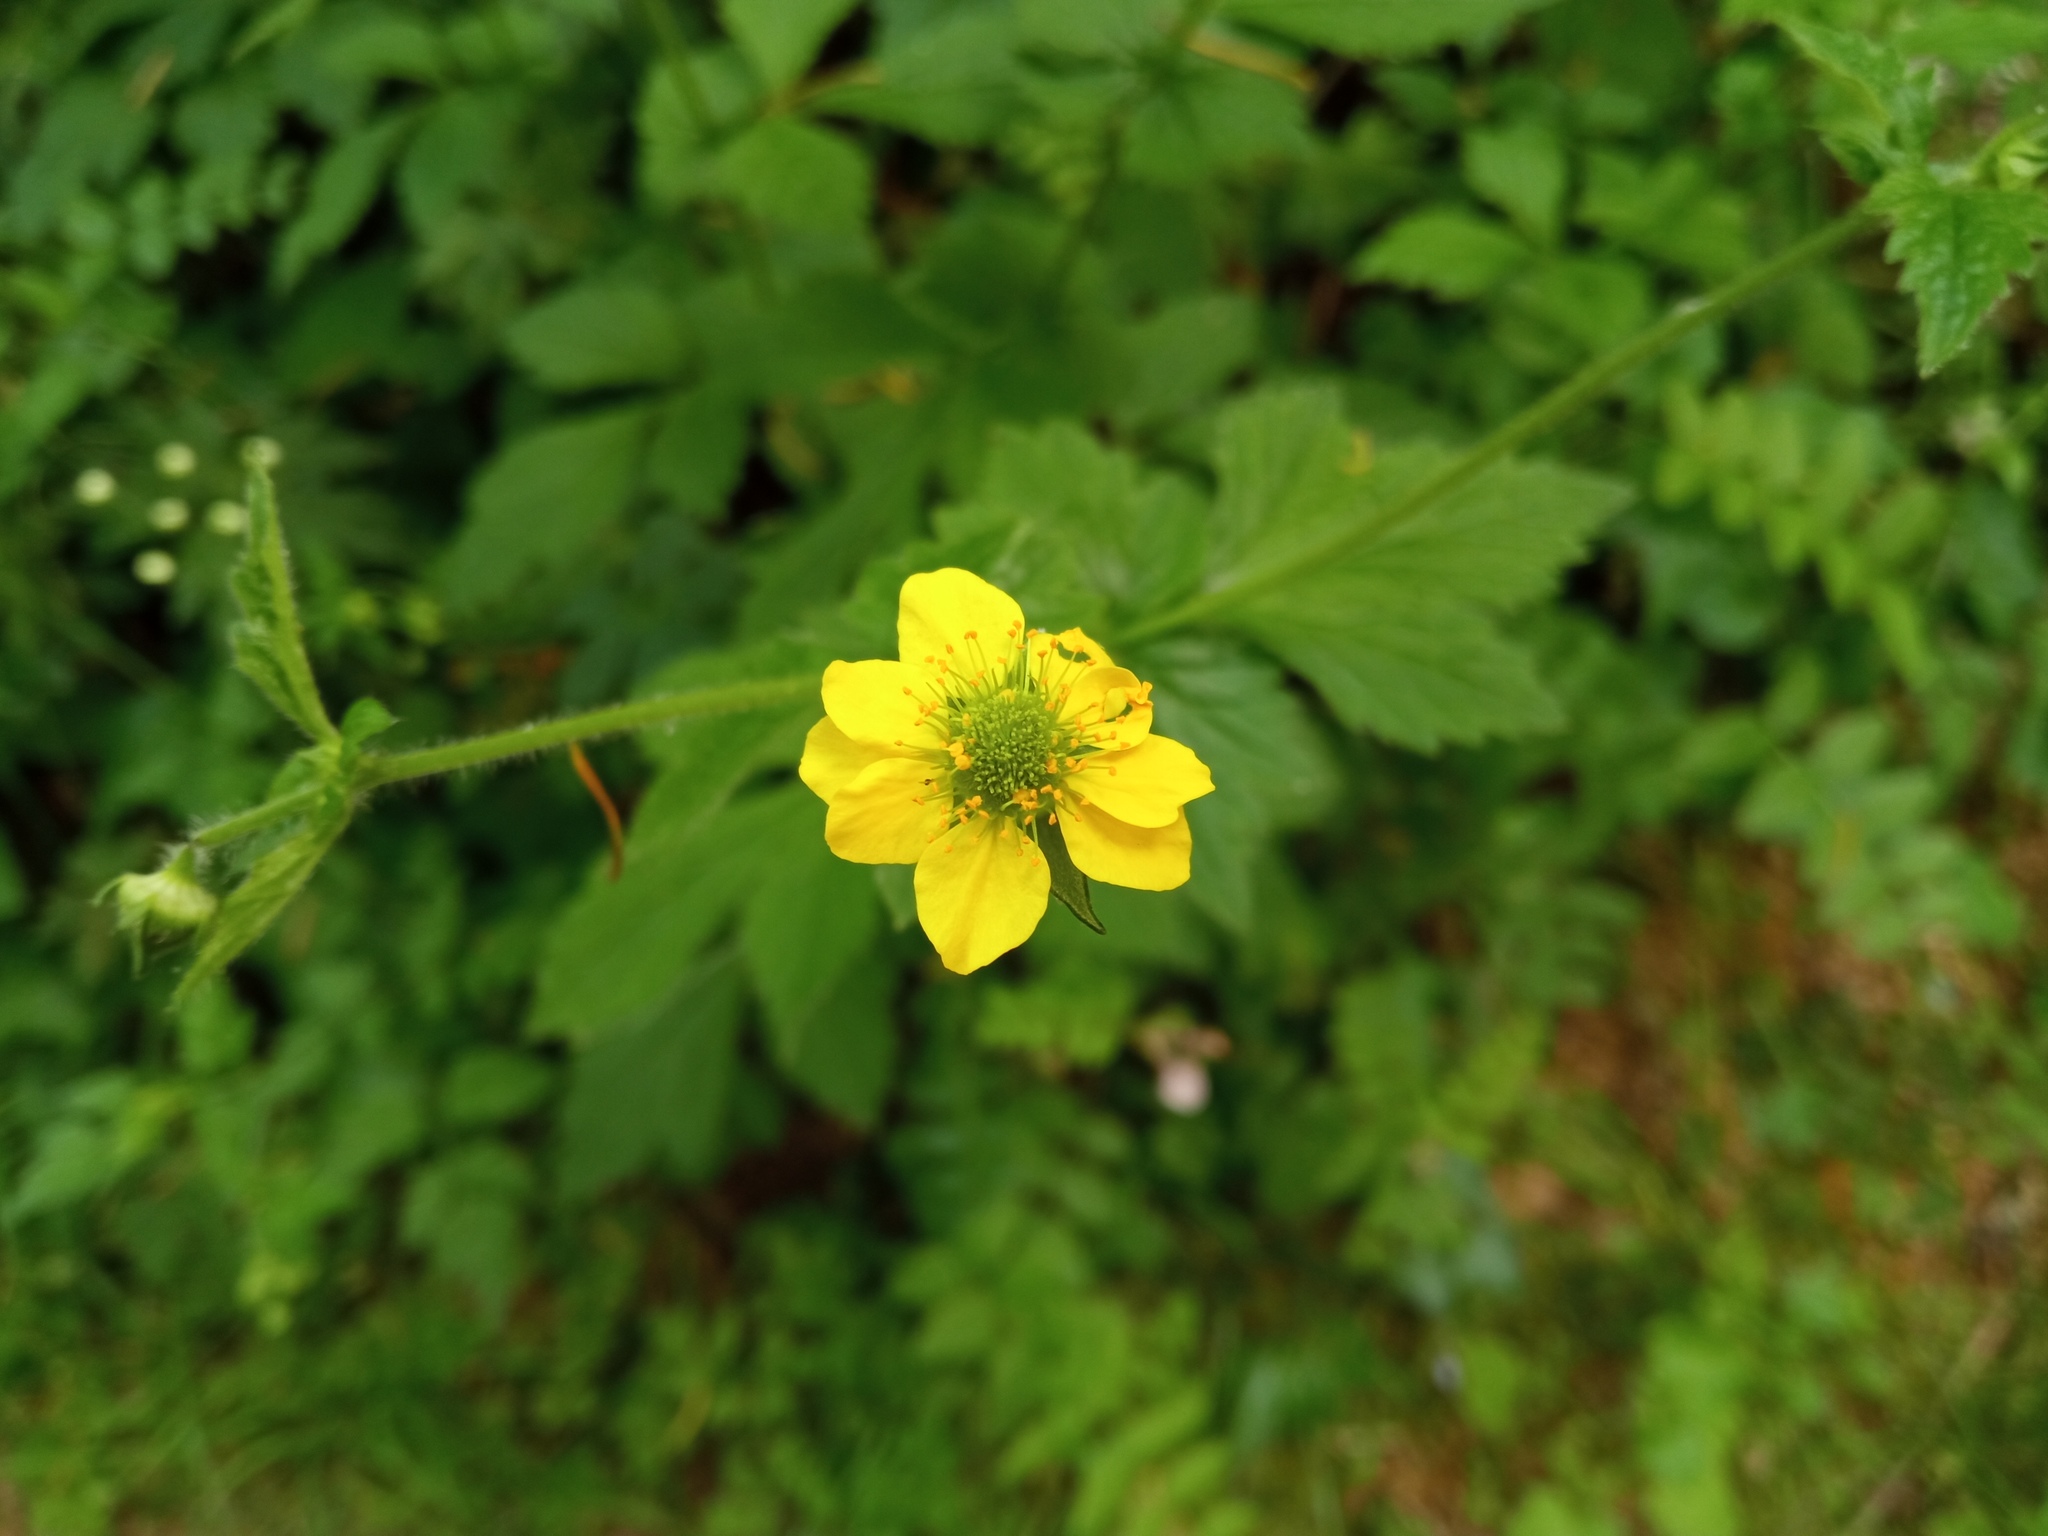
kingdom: Plantae
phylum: Tracheophyta
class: Magnoliopsida
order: Rosales
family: Rosaceae
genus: Geum
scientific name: Geum urbanum
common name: Wood avens
